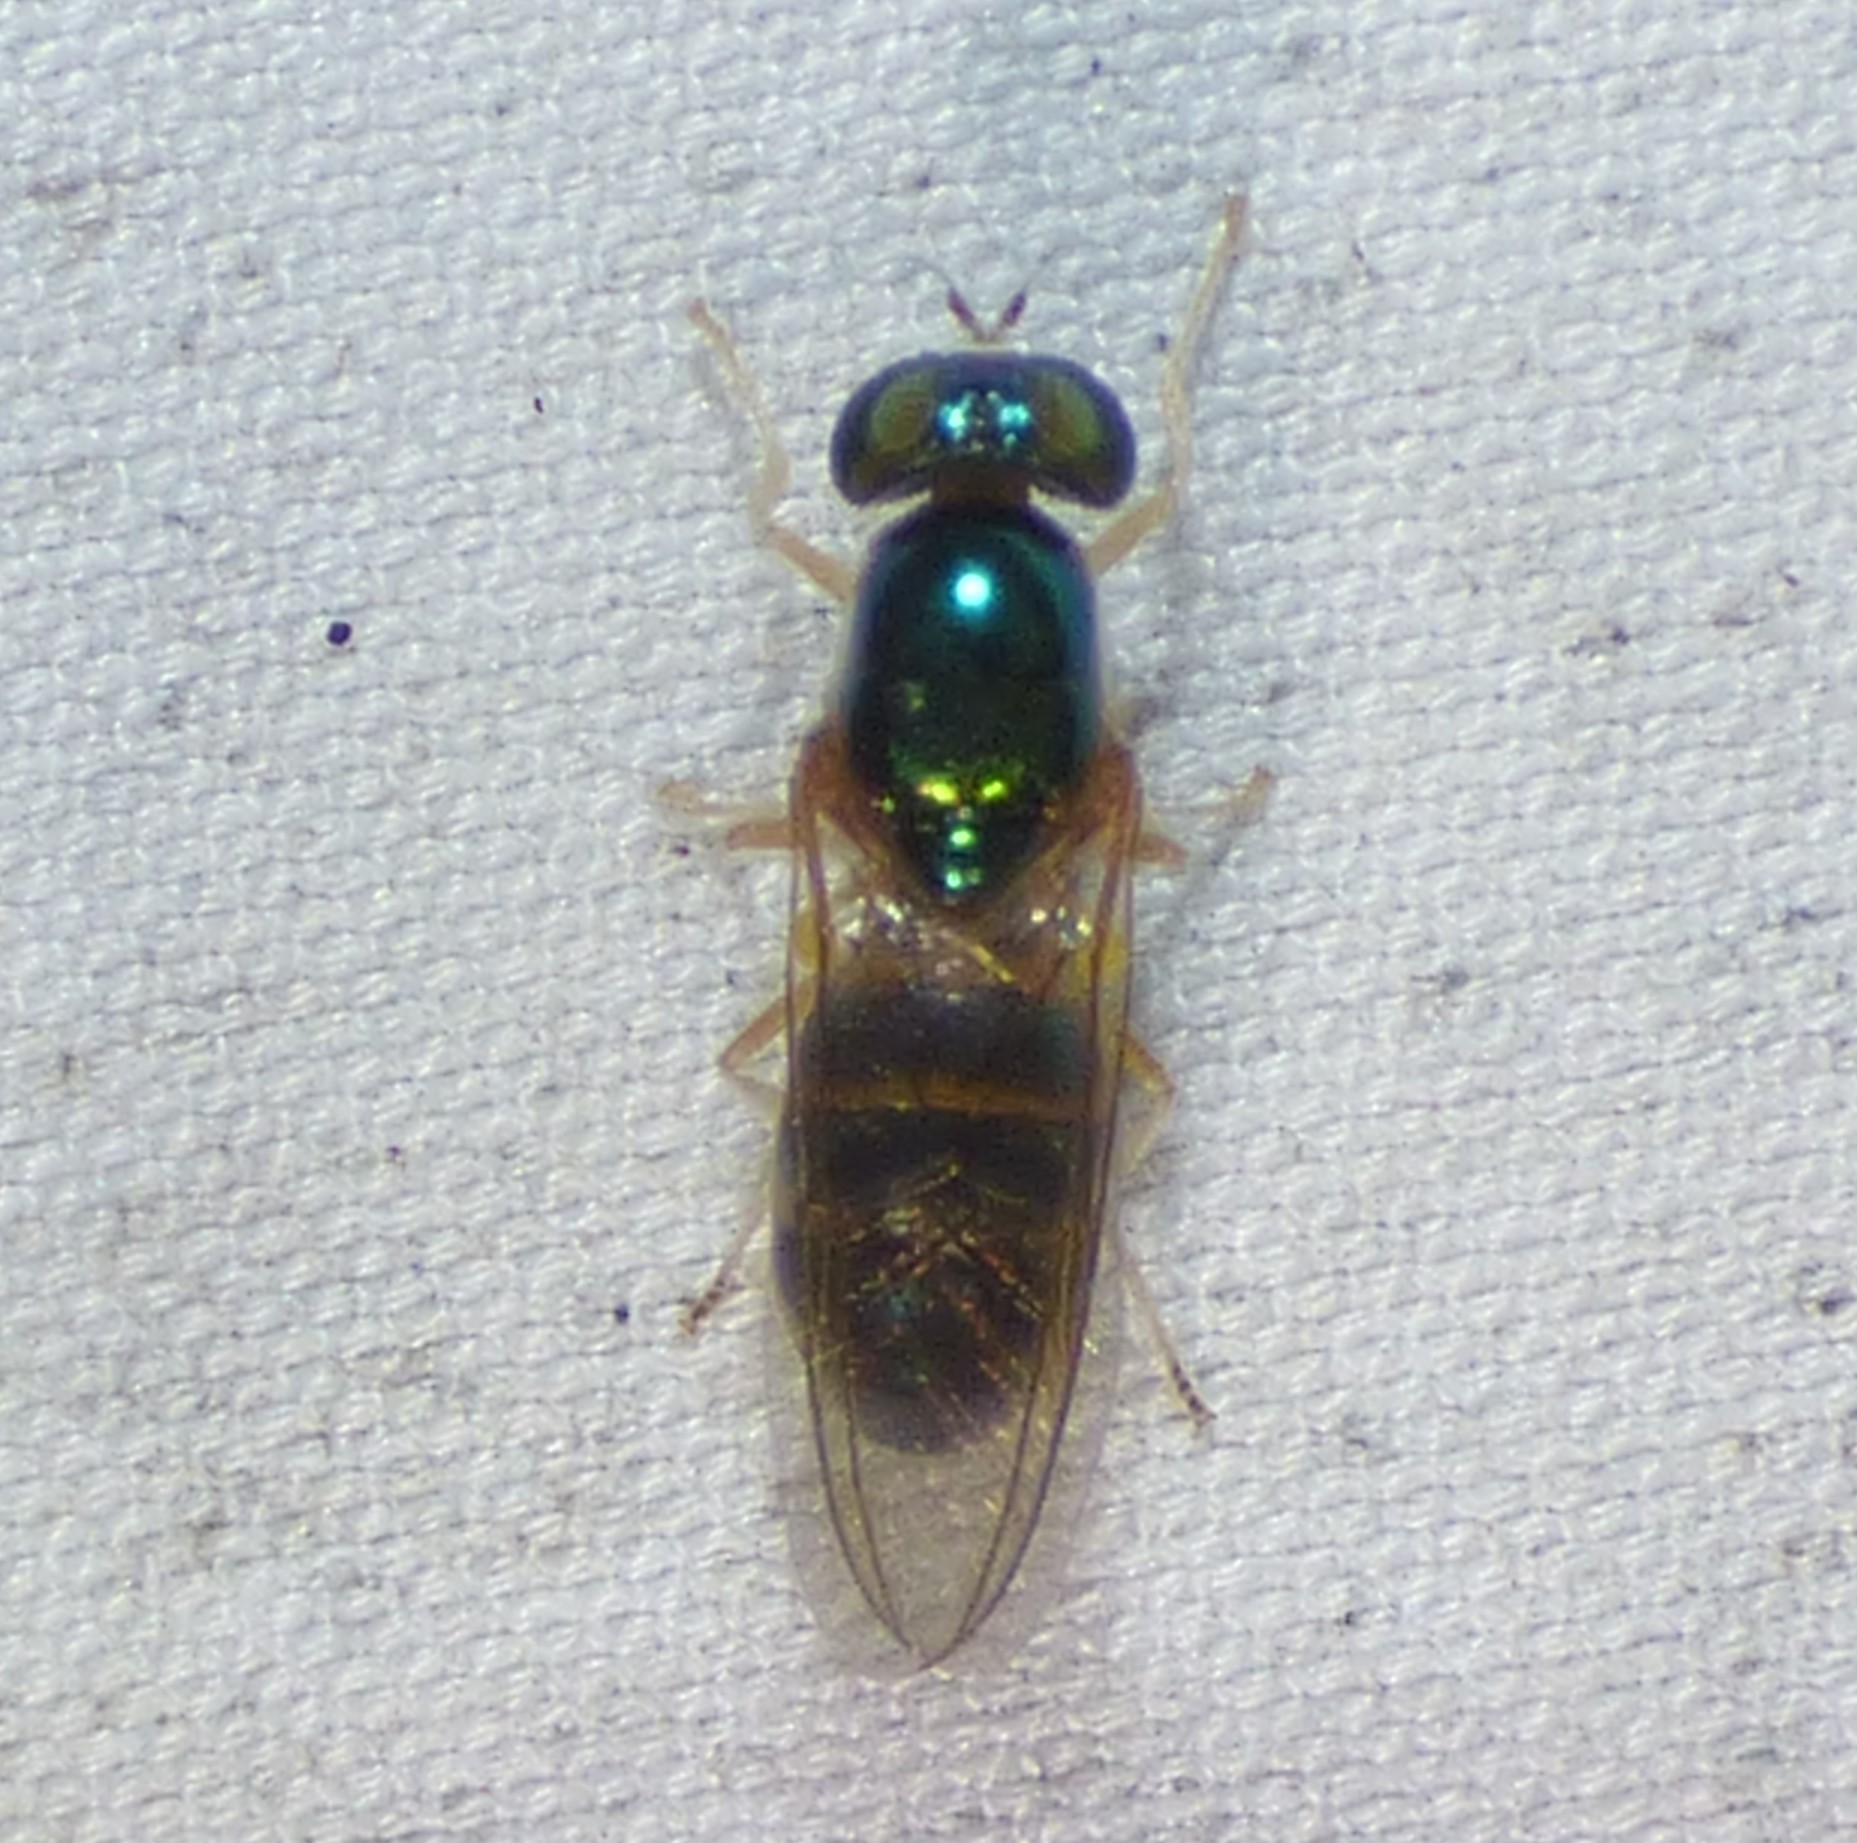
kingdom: Animalia
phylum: Arthropoda
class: Insecta
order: Diptera
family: Stratiomyidae
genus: Cephalochrysa
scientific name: Cephalochrysa canadensis
